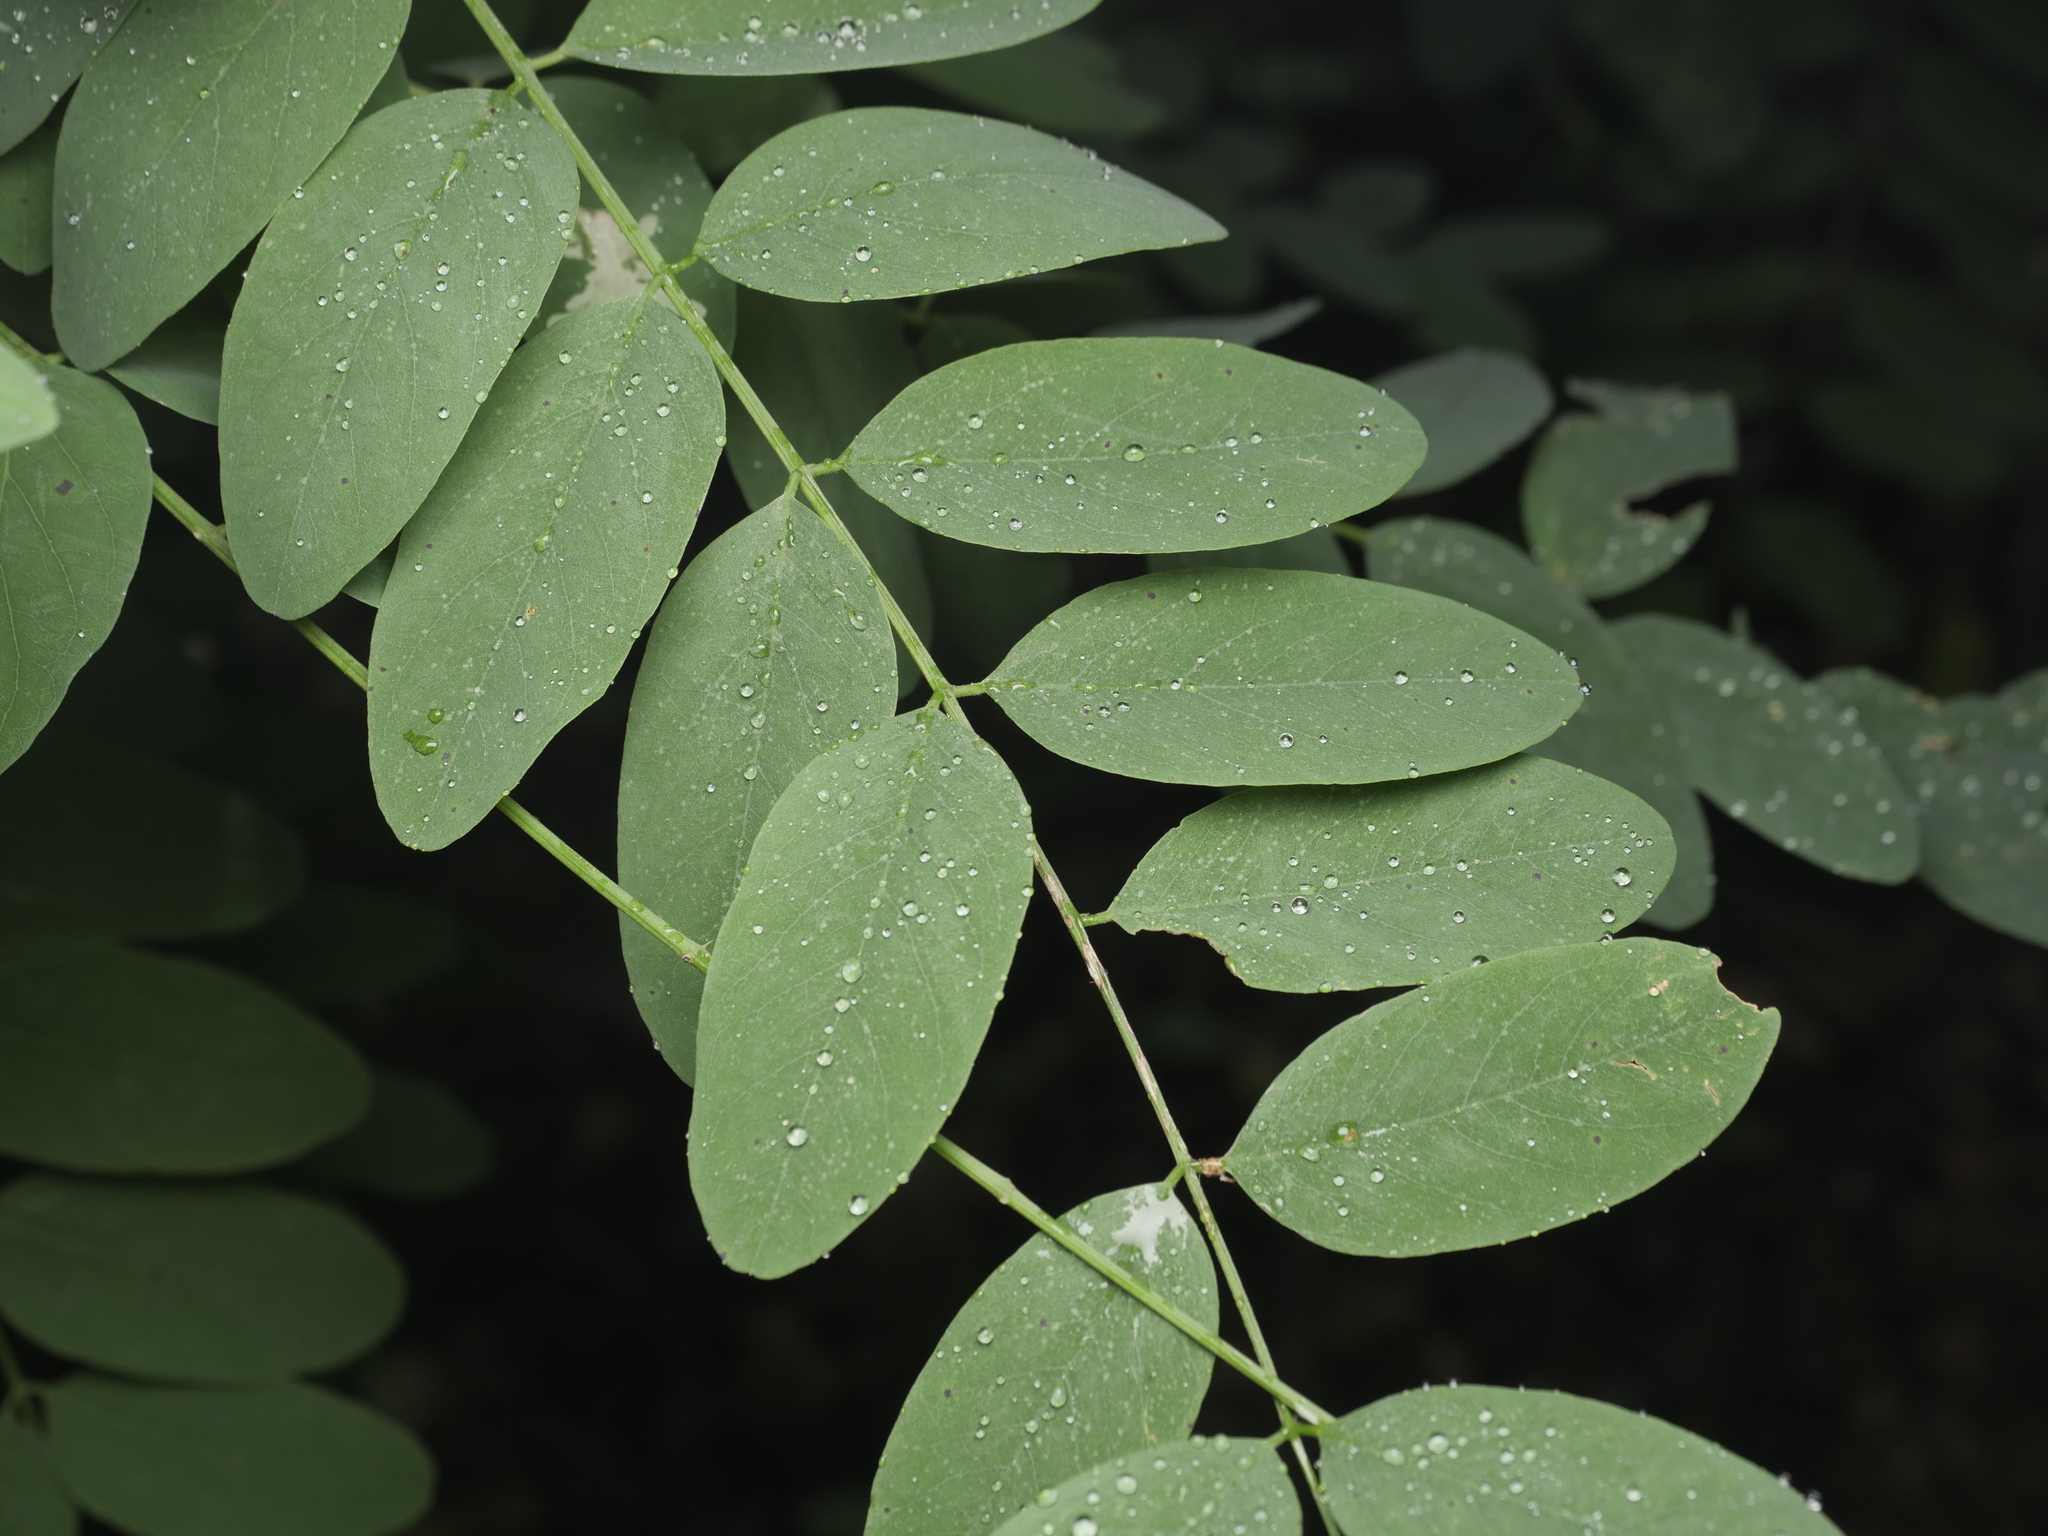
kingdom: Plantae
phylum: Tracheophyta
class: Magnoliopsida
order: Fabales
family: Fabaceae
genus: Robinia
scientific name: Robinia pseudoacacia
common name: Black locust
